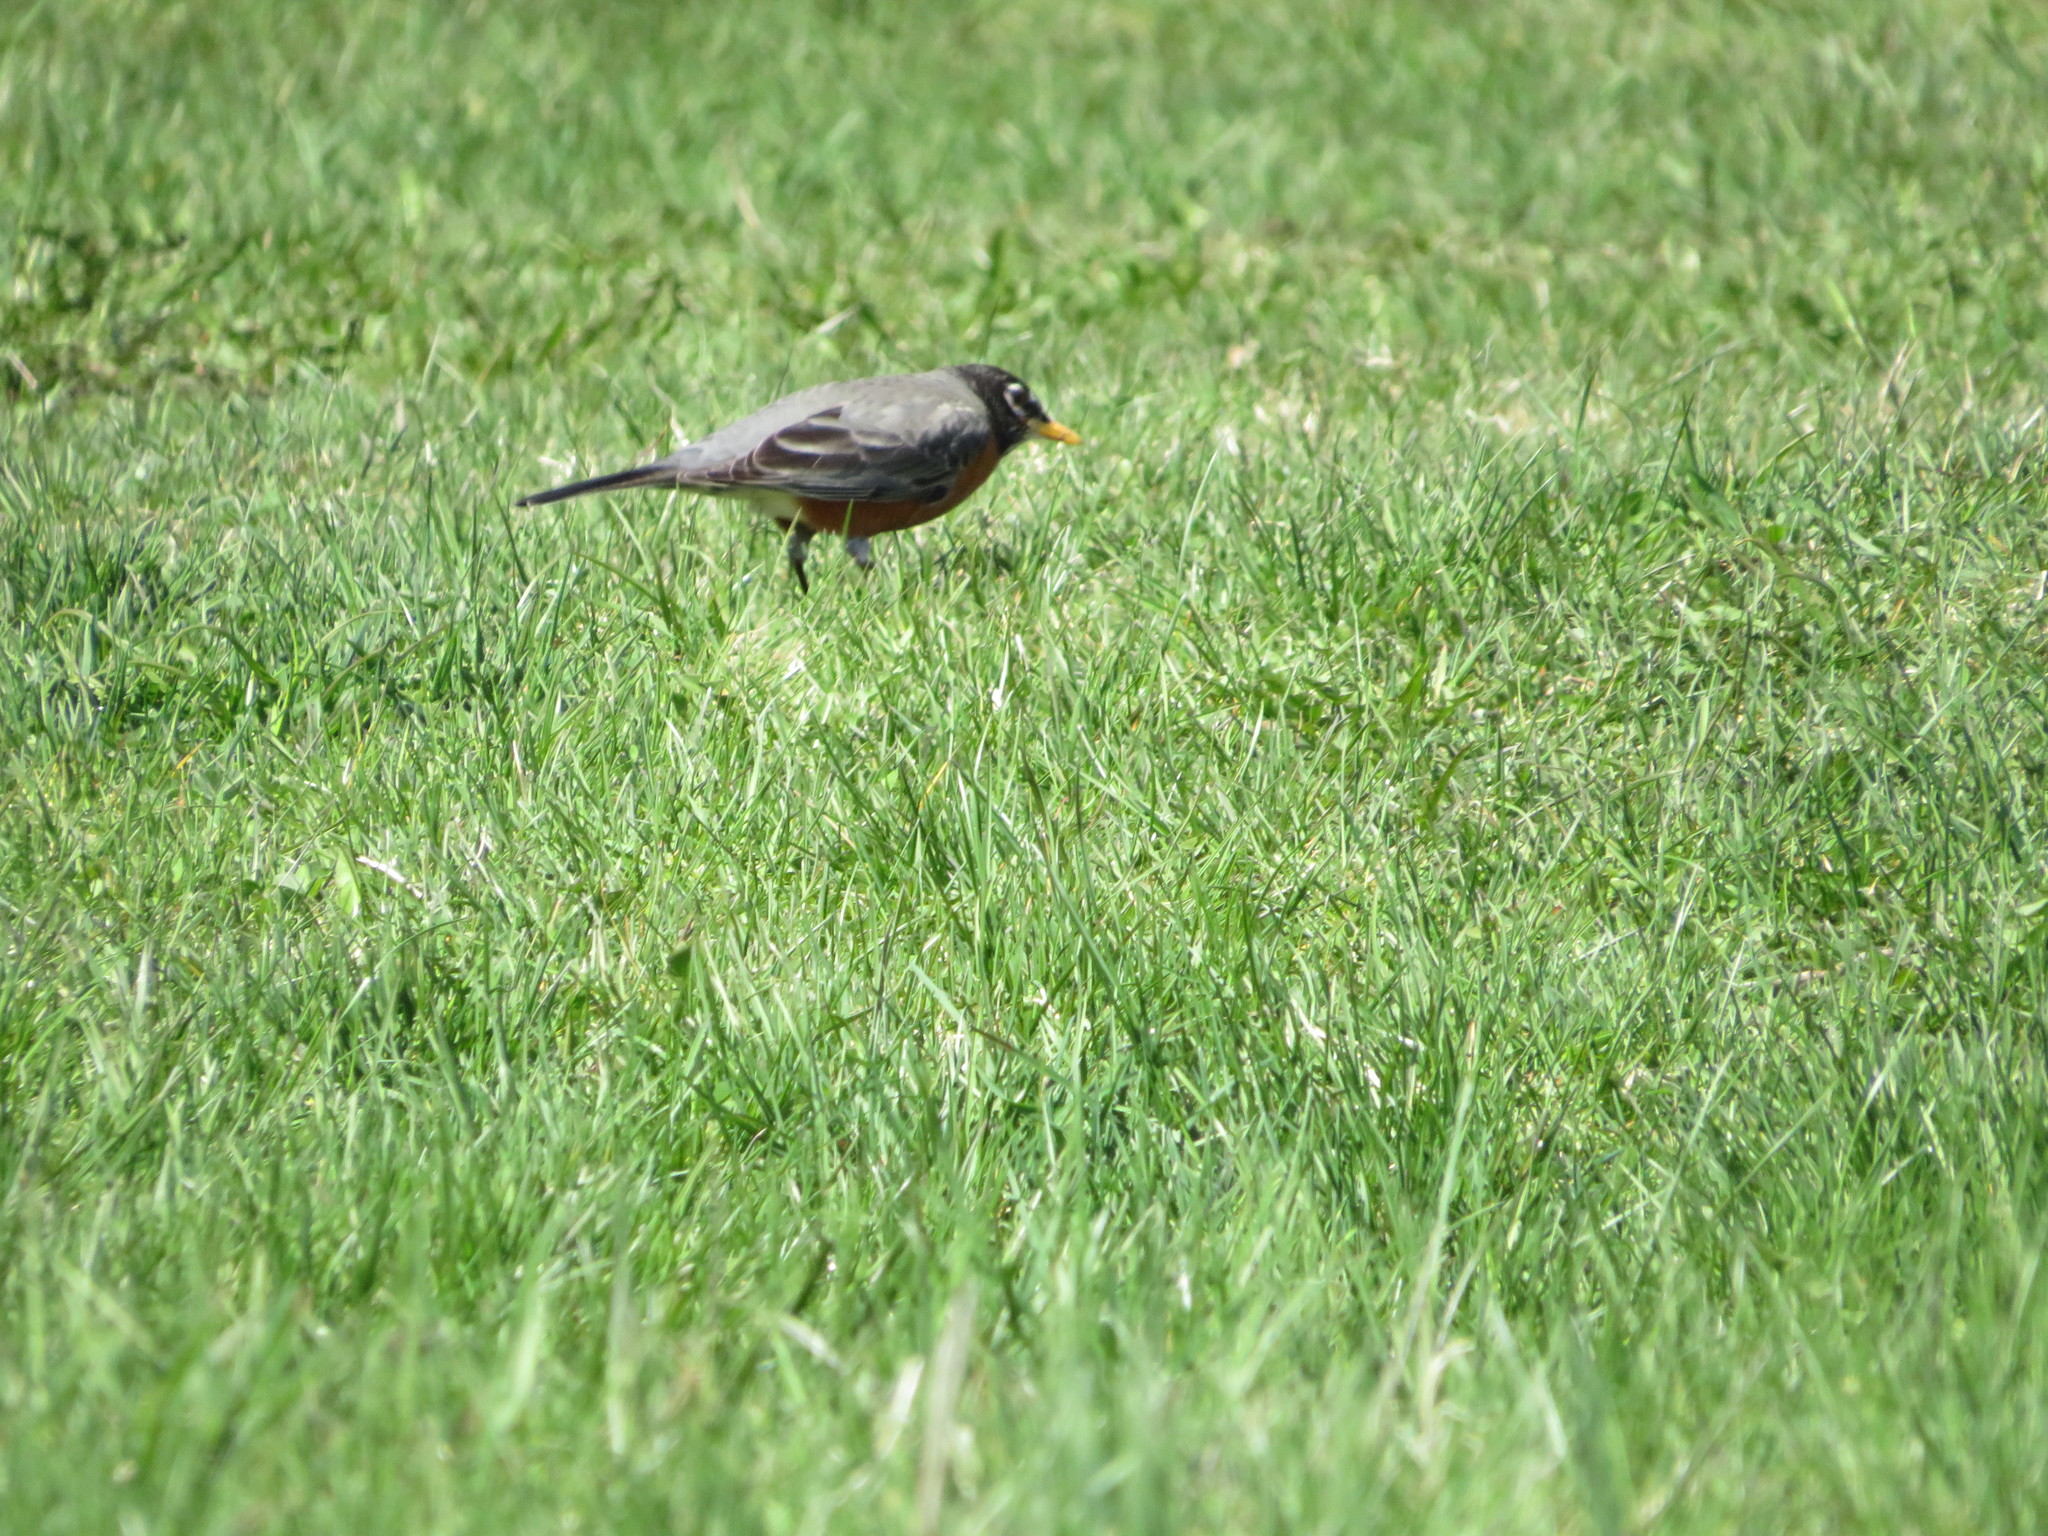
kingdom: Animalia
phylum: Chordata
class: Aves
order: Passeriformes
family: Turdidae
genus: Turdus
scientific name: Turdus migratorius
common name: American robin
